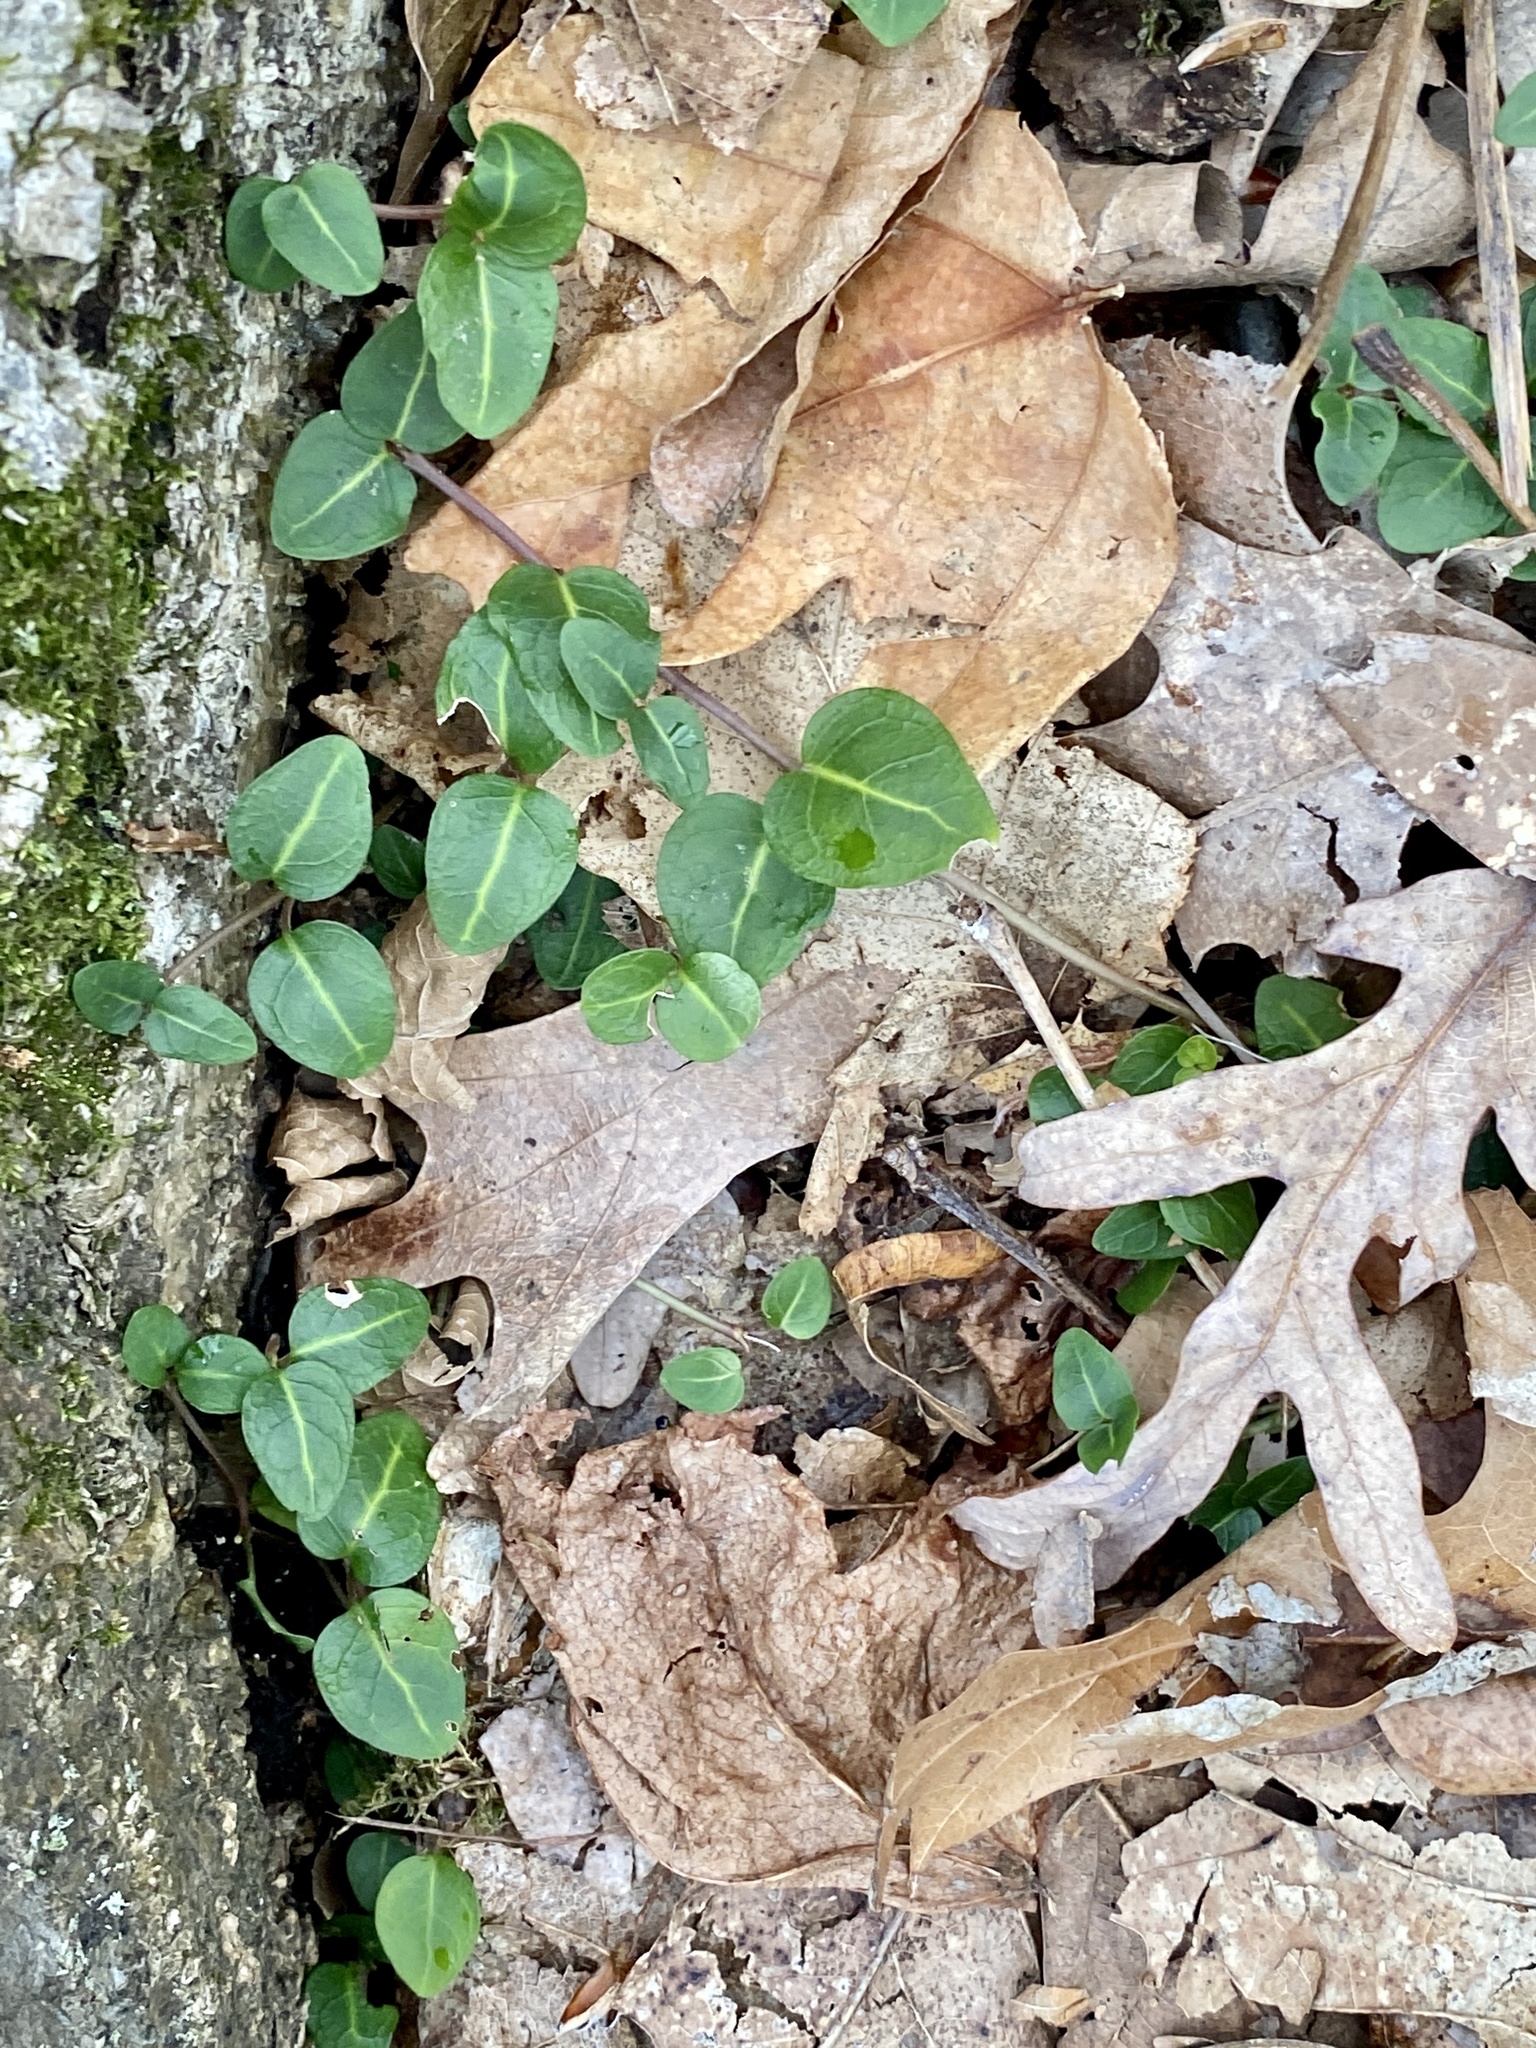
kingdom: Plantae
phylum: Tracheophyta
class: Magnoliopsida
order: Gentianales
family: Rubiaceae
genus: Mitchella
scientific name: Mitchella repens
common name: Partridge-berry
